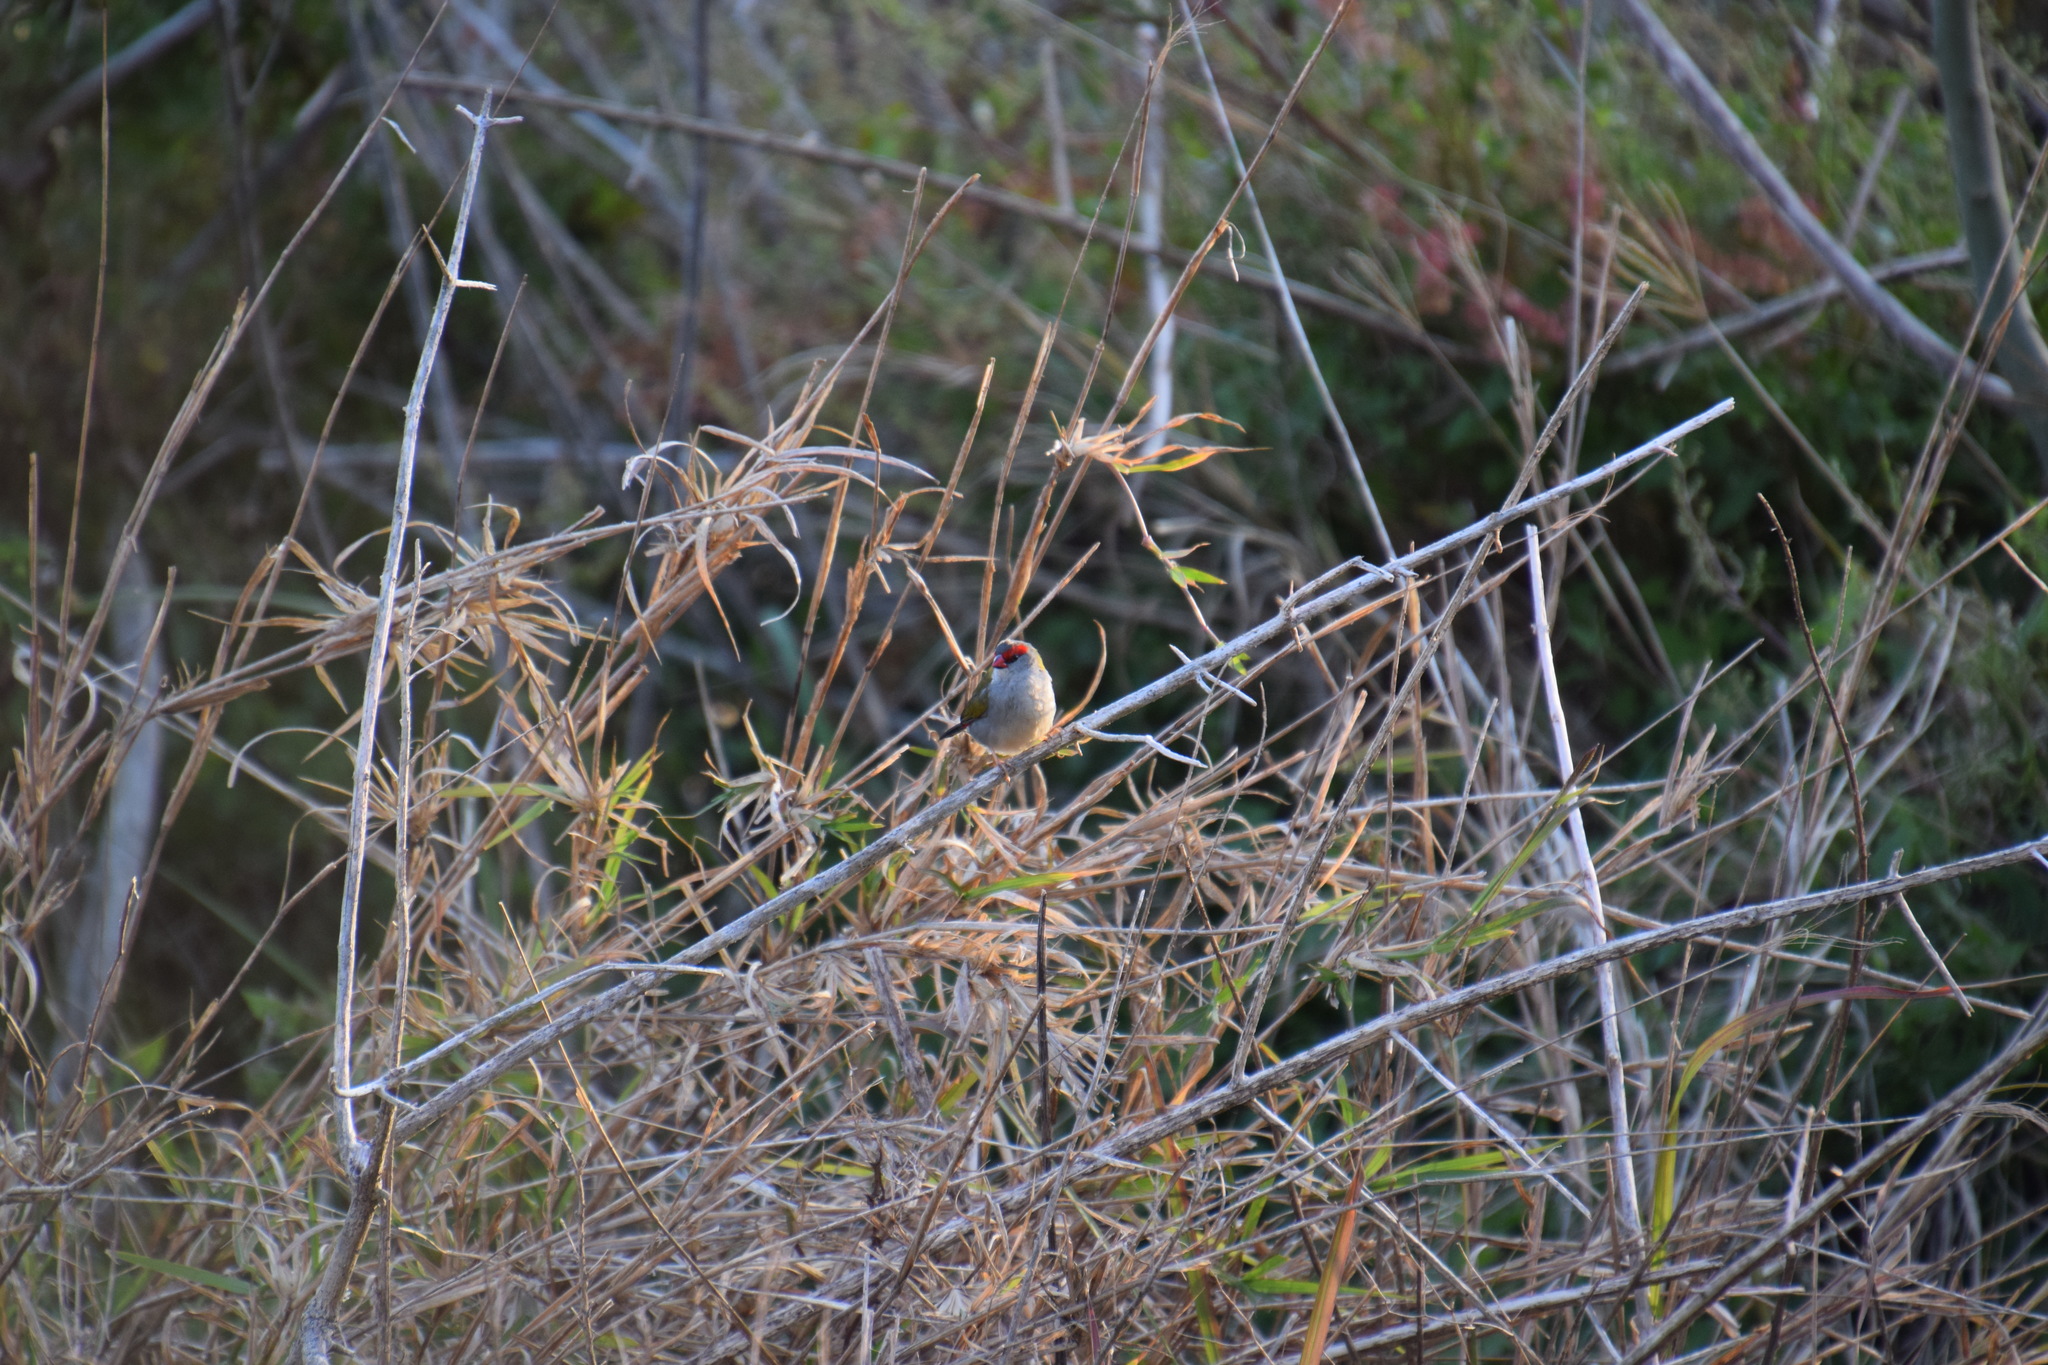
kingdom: Animalia
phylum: Chordata
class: Aves
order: Passeriformes
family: Estrildidae
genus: Neochmia
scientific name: Neochmia temporalis
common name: Red-browed finch
